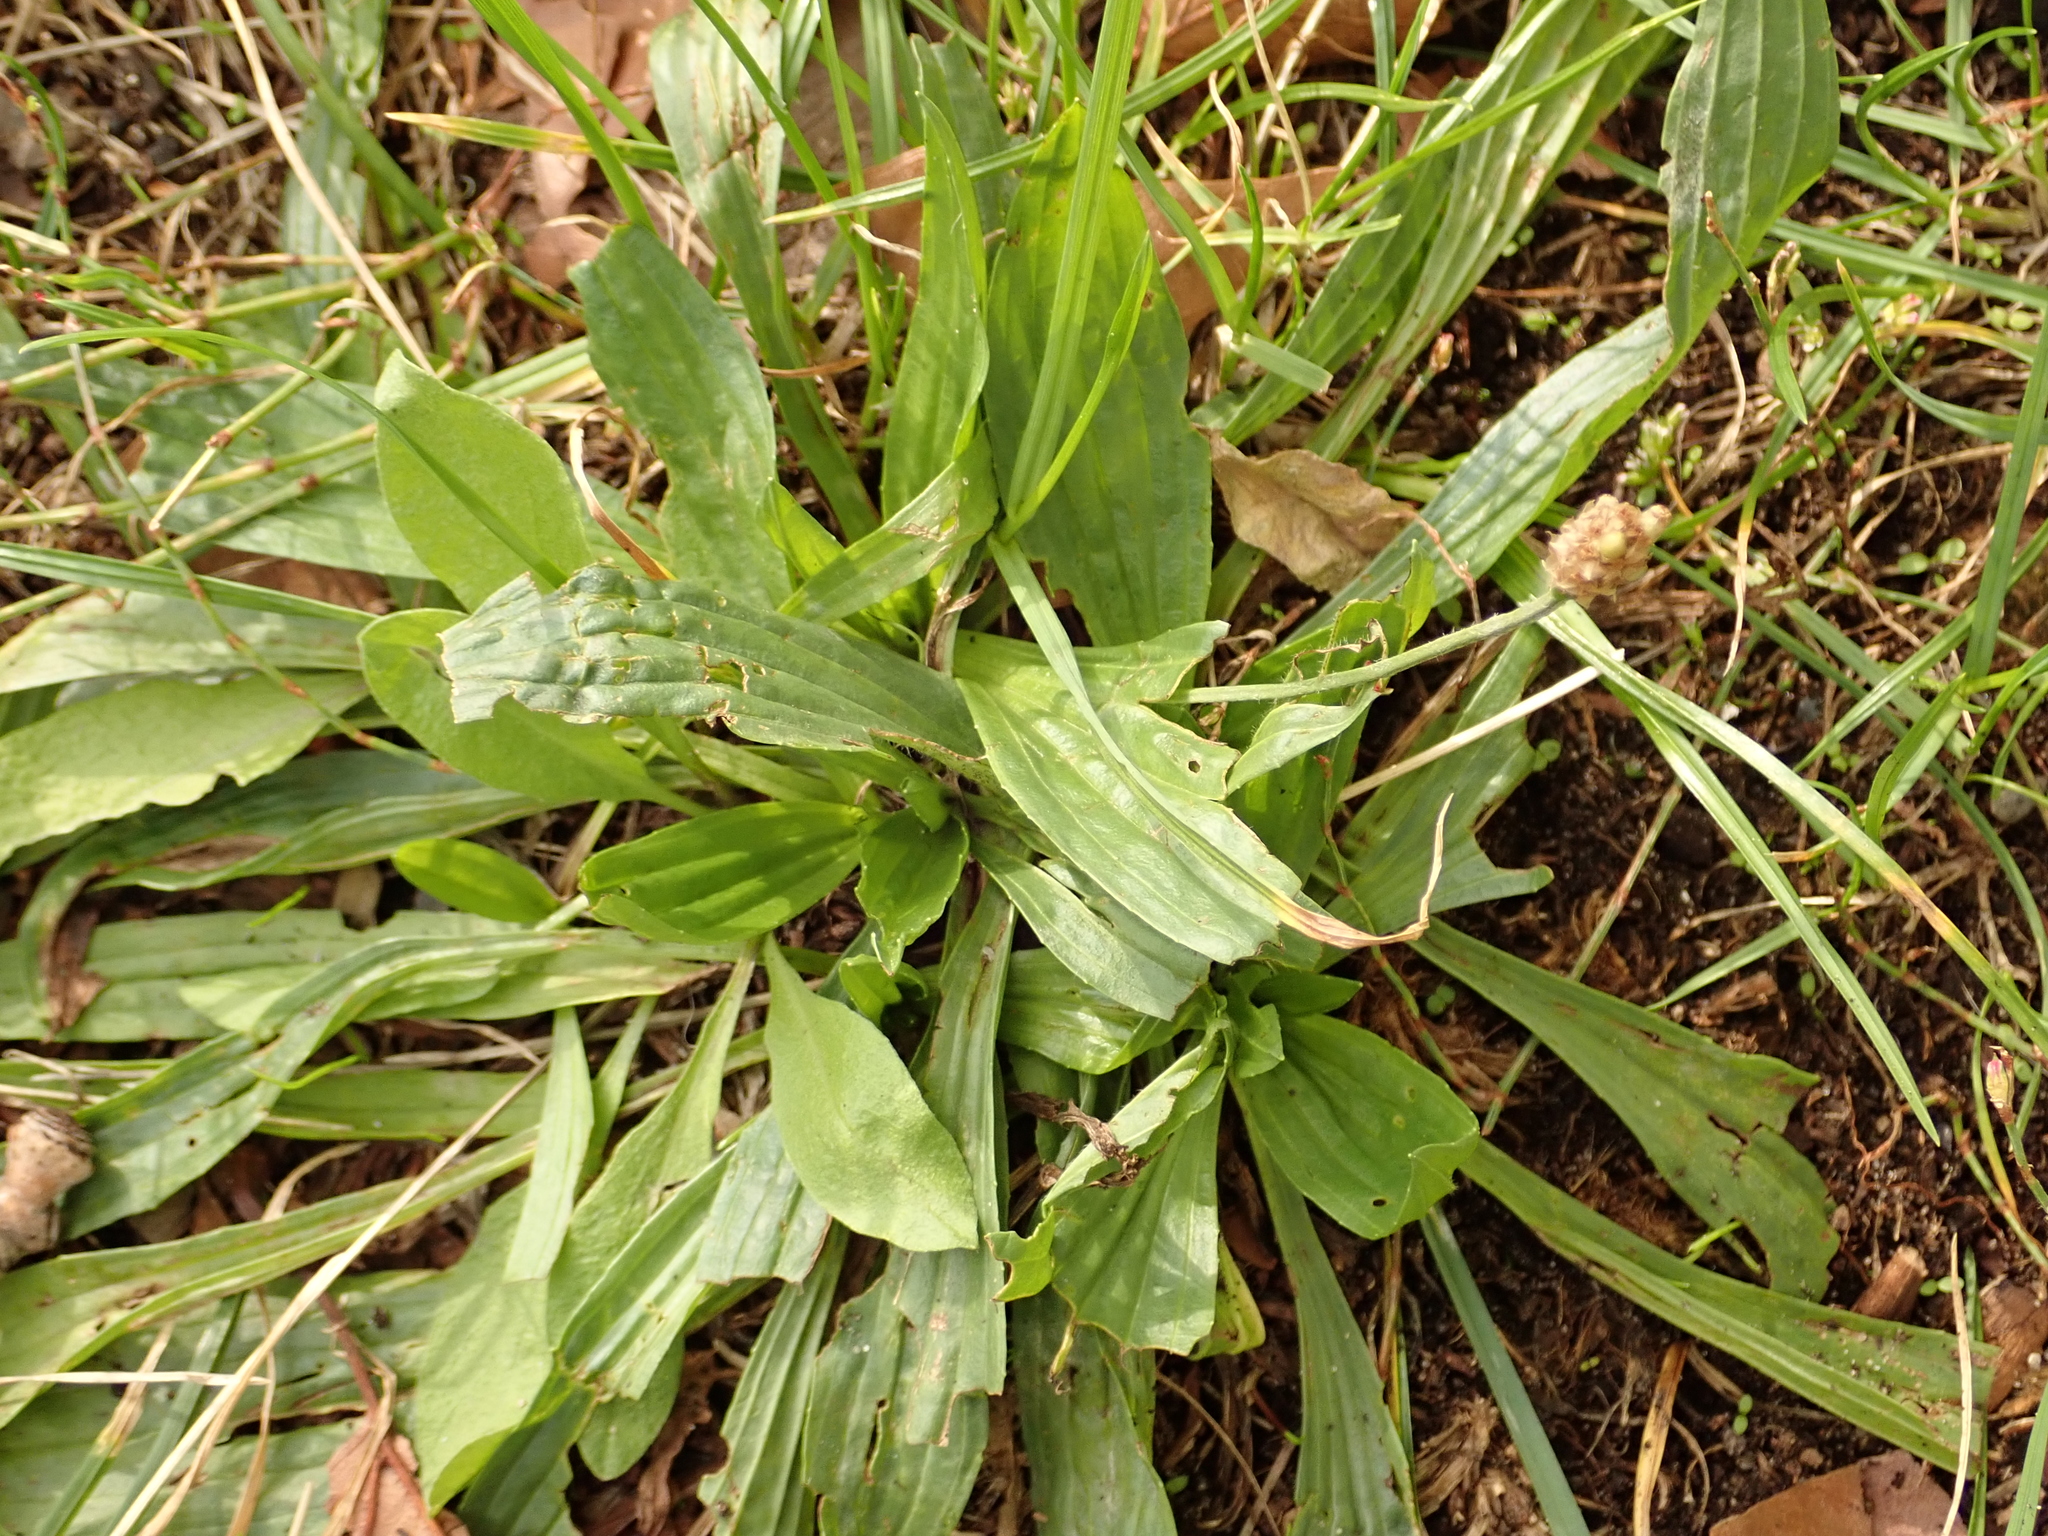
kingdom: Plantae
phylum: Tracheophyta
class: Magnoliopsida
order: Lamiales
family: Plantaginaceae
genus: Plantago
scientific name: Plantago lanceolata
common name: Ribwort plantain
